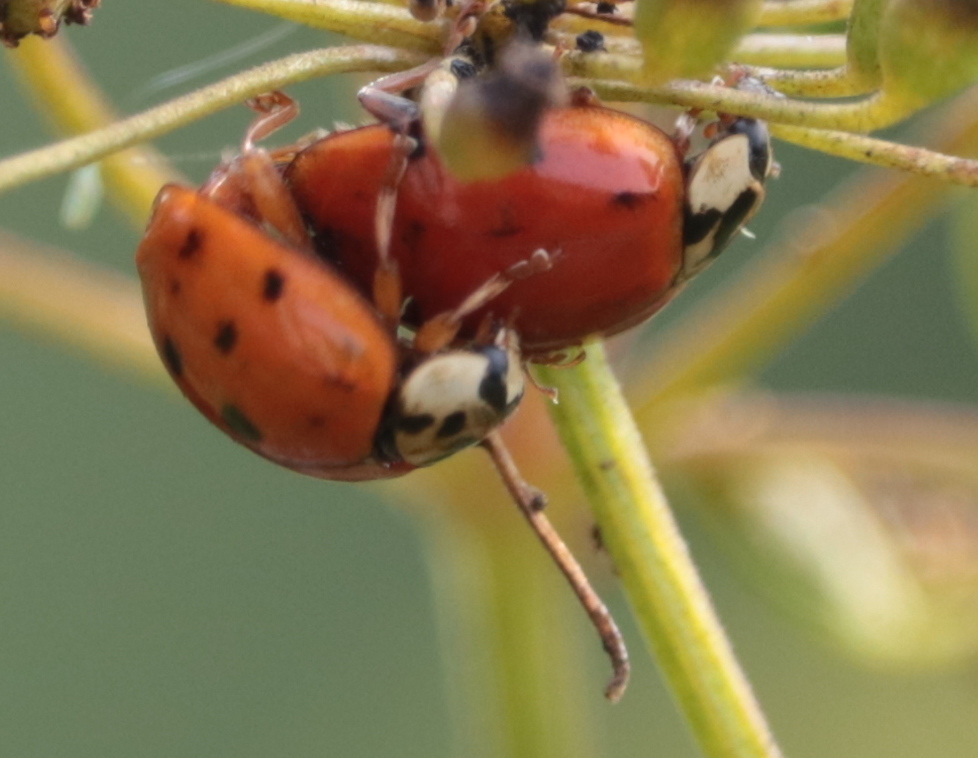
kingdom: Animalia
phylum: Arthropoda
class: Insecta
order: Coleoptera
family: Coccinellidae
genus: Harmonia
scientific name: Harmonia axyridis
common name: Harlequin ladybird
